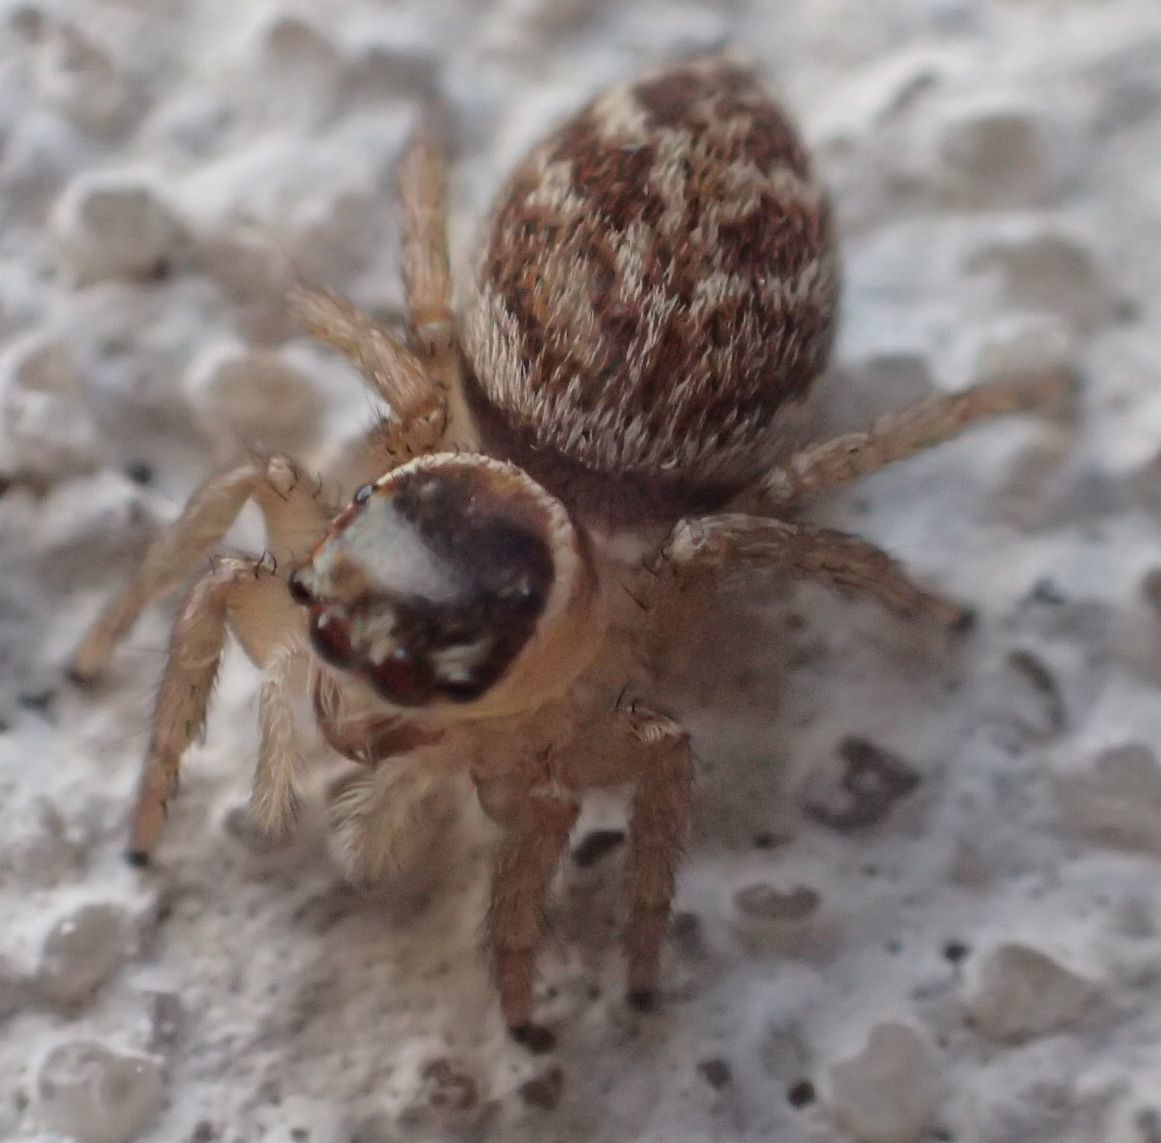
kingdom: Animalia
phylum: Arthropoda
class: Arachnida
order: Araneae
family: Salticidae
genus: Maratus
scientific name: Maratus griseus
